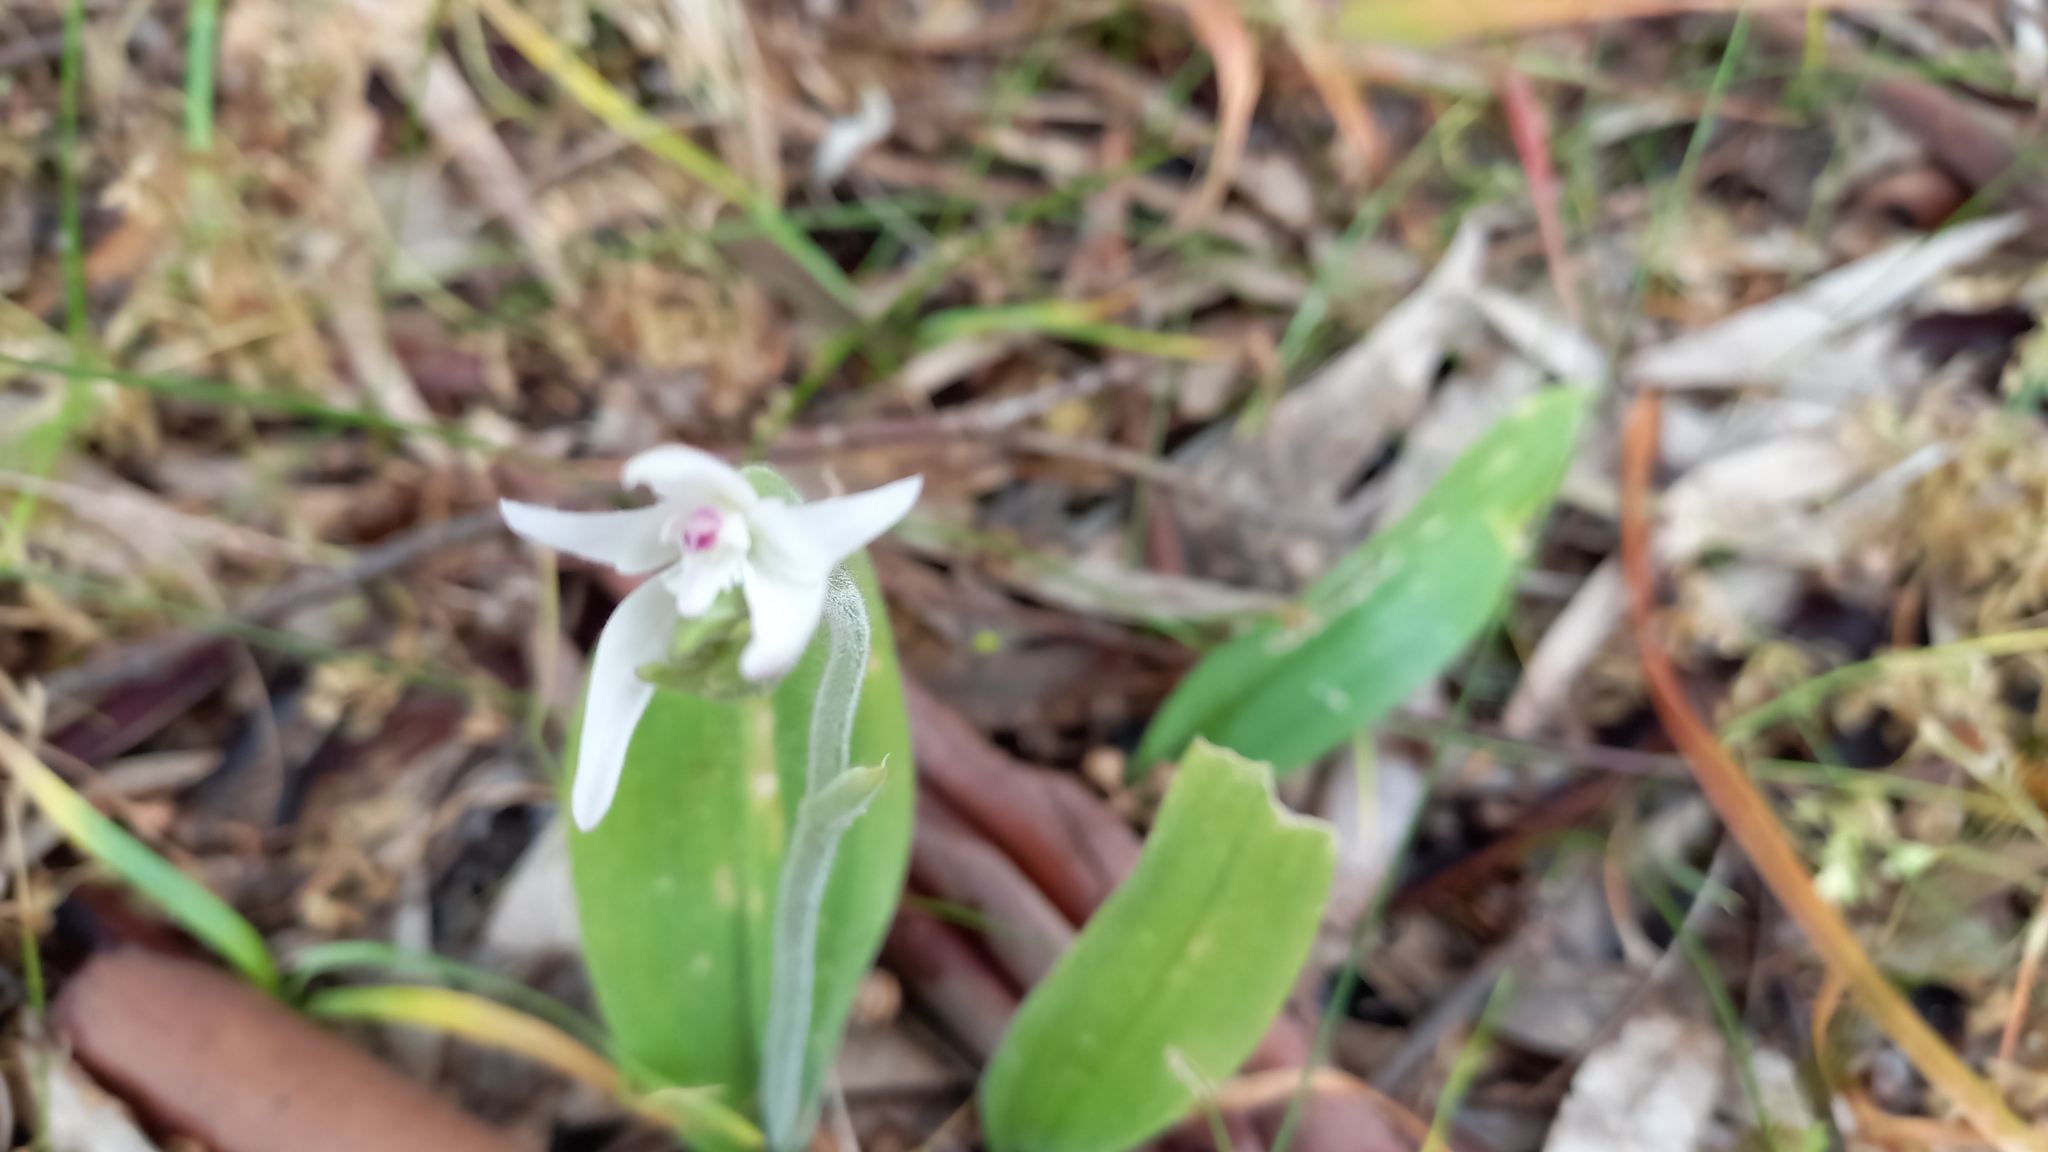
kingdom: Plantae
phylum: Tracheophyta
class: Liliopsida
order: Asparagales
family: Orchidaceae
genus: Caladenia
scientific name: Caladenia latifolia
